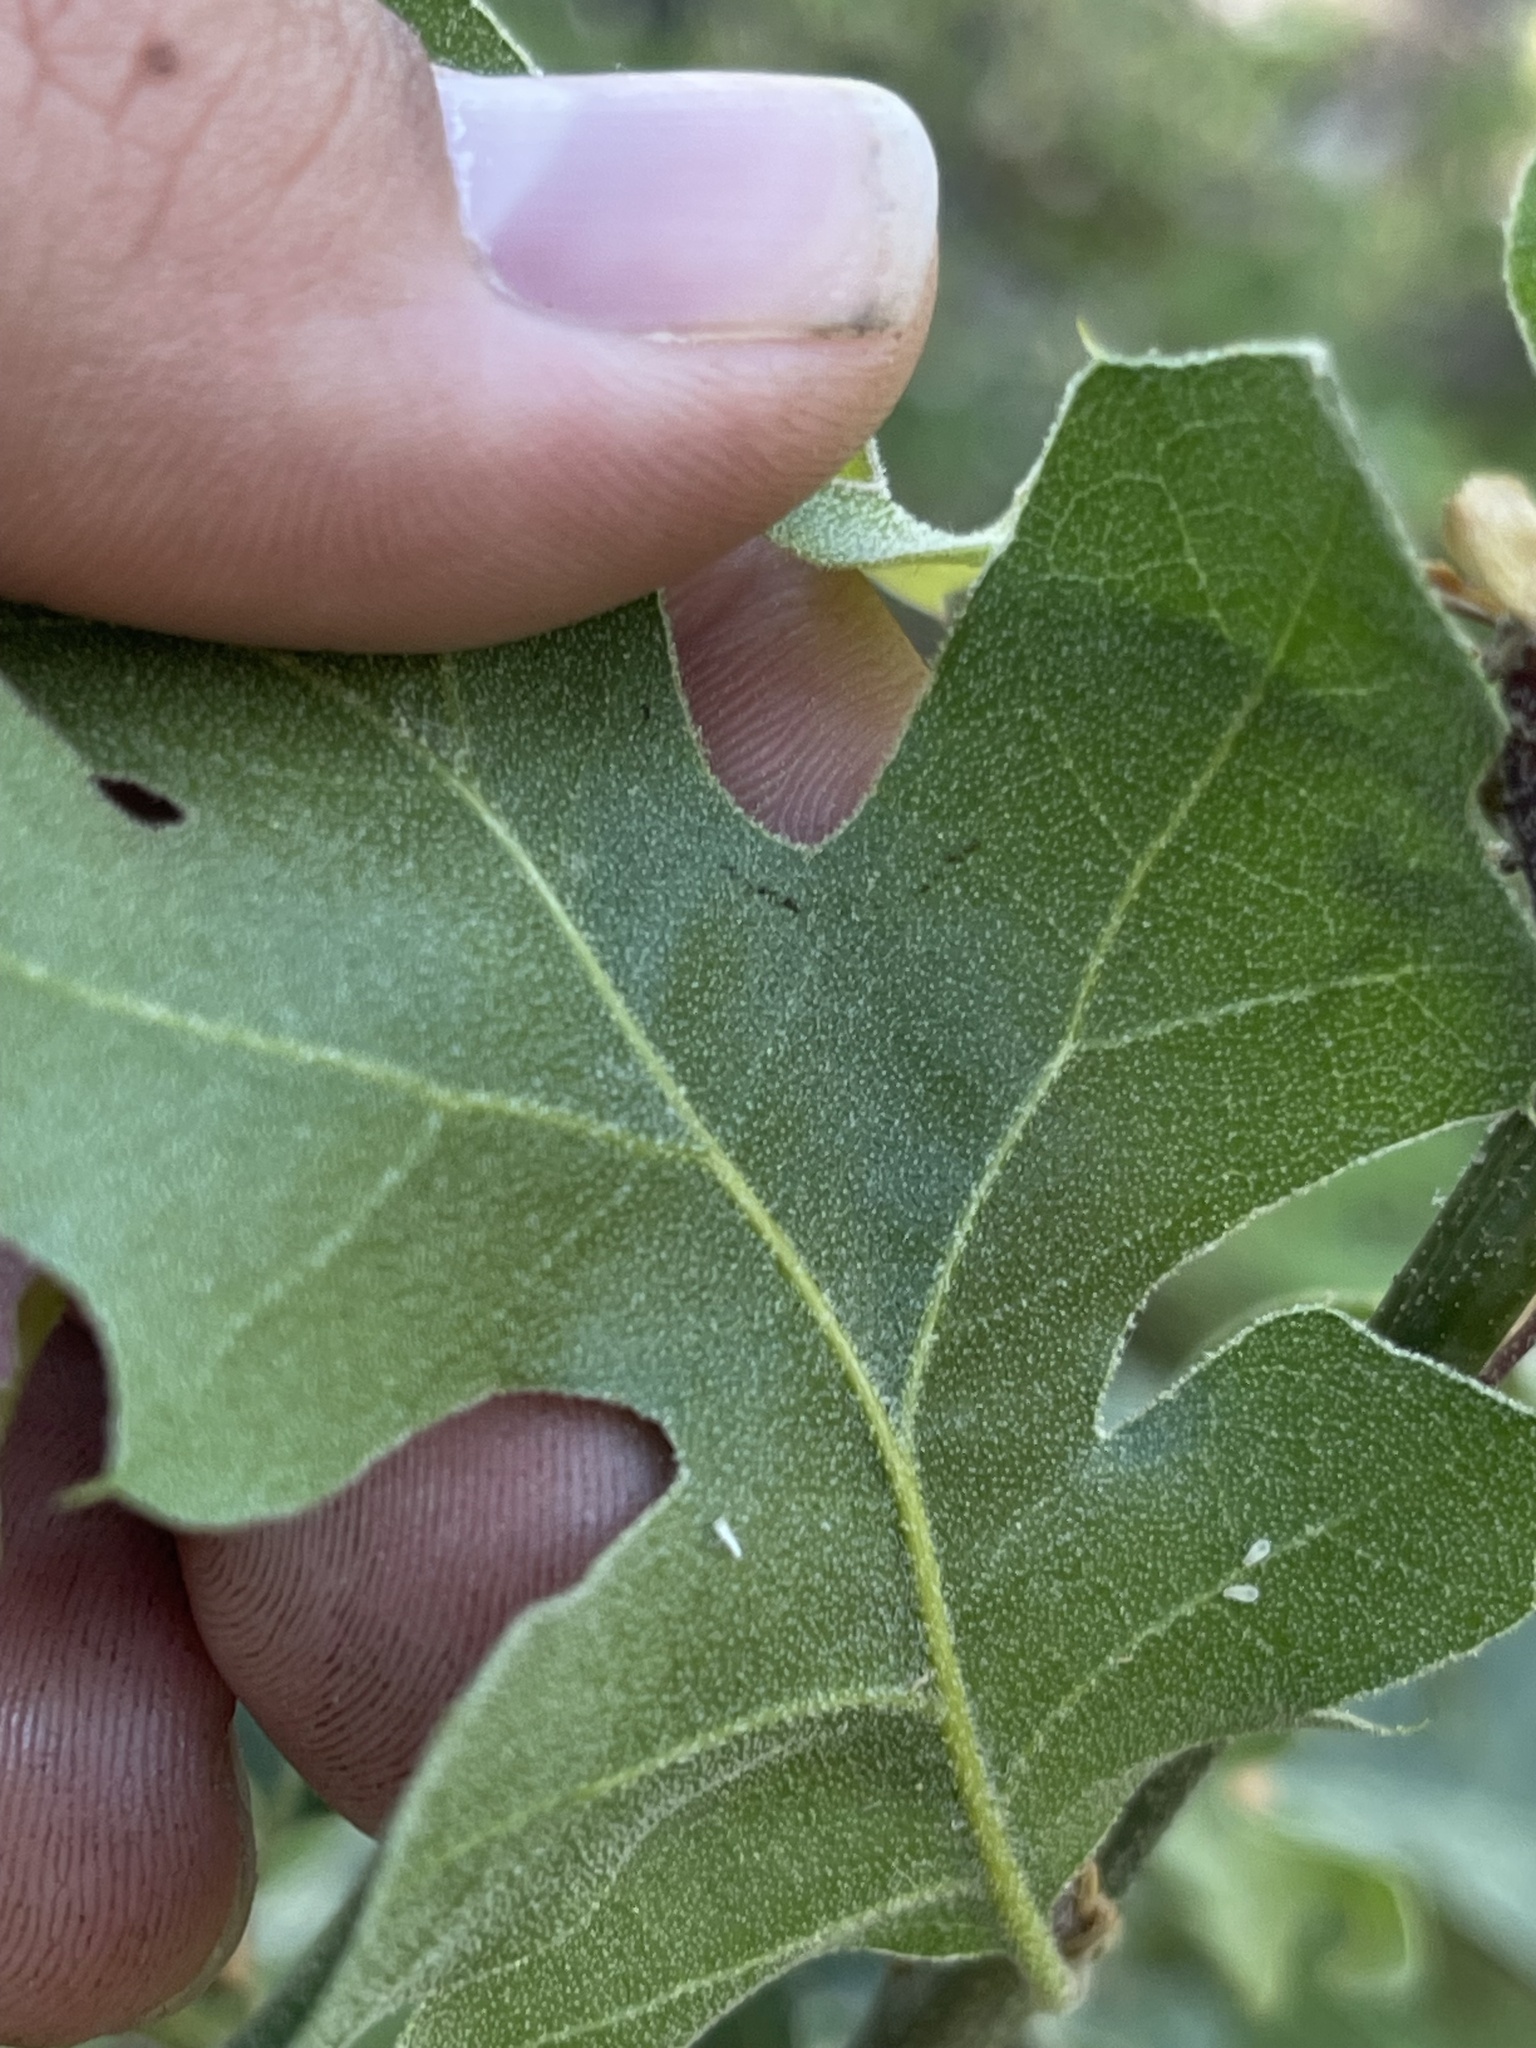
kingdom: Plantae
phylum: Tracheophyta
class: Magnoliopsida
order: Fagales
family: Fagaceae
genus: Quercus
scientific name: Quercus kelloggii
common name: California black oak
